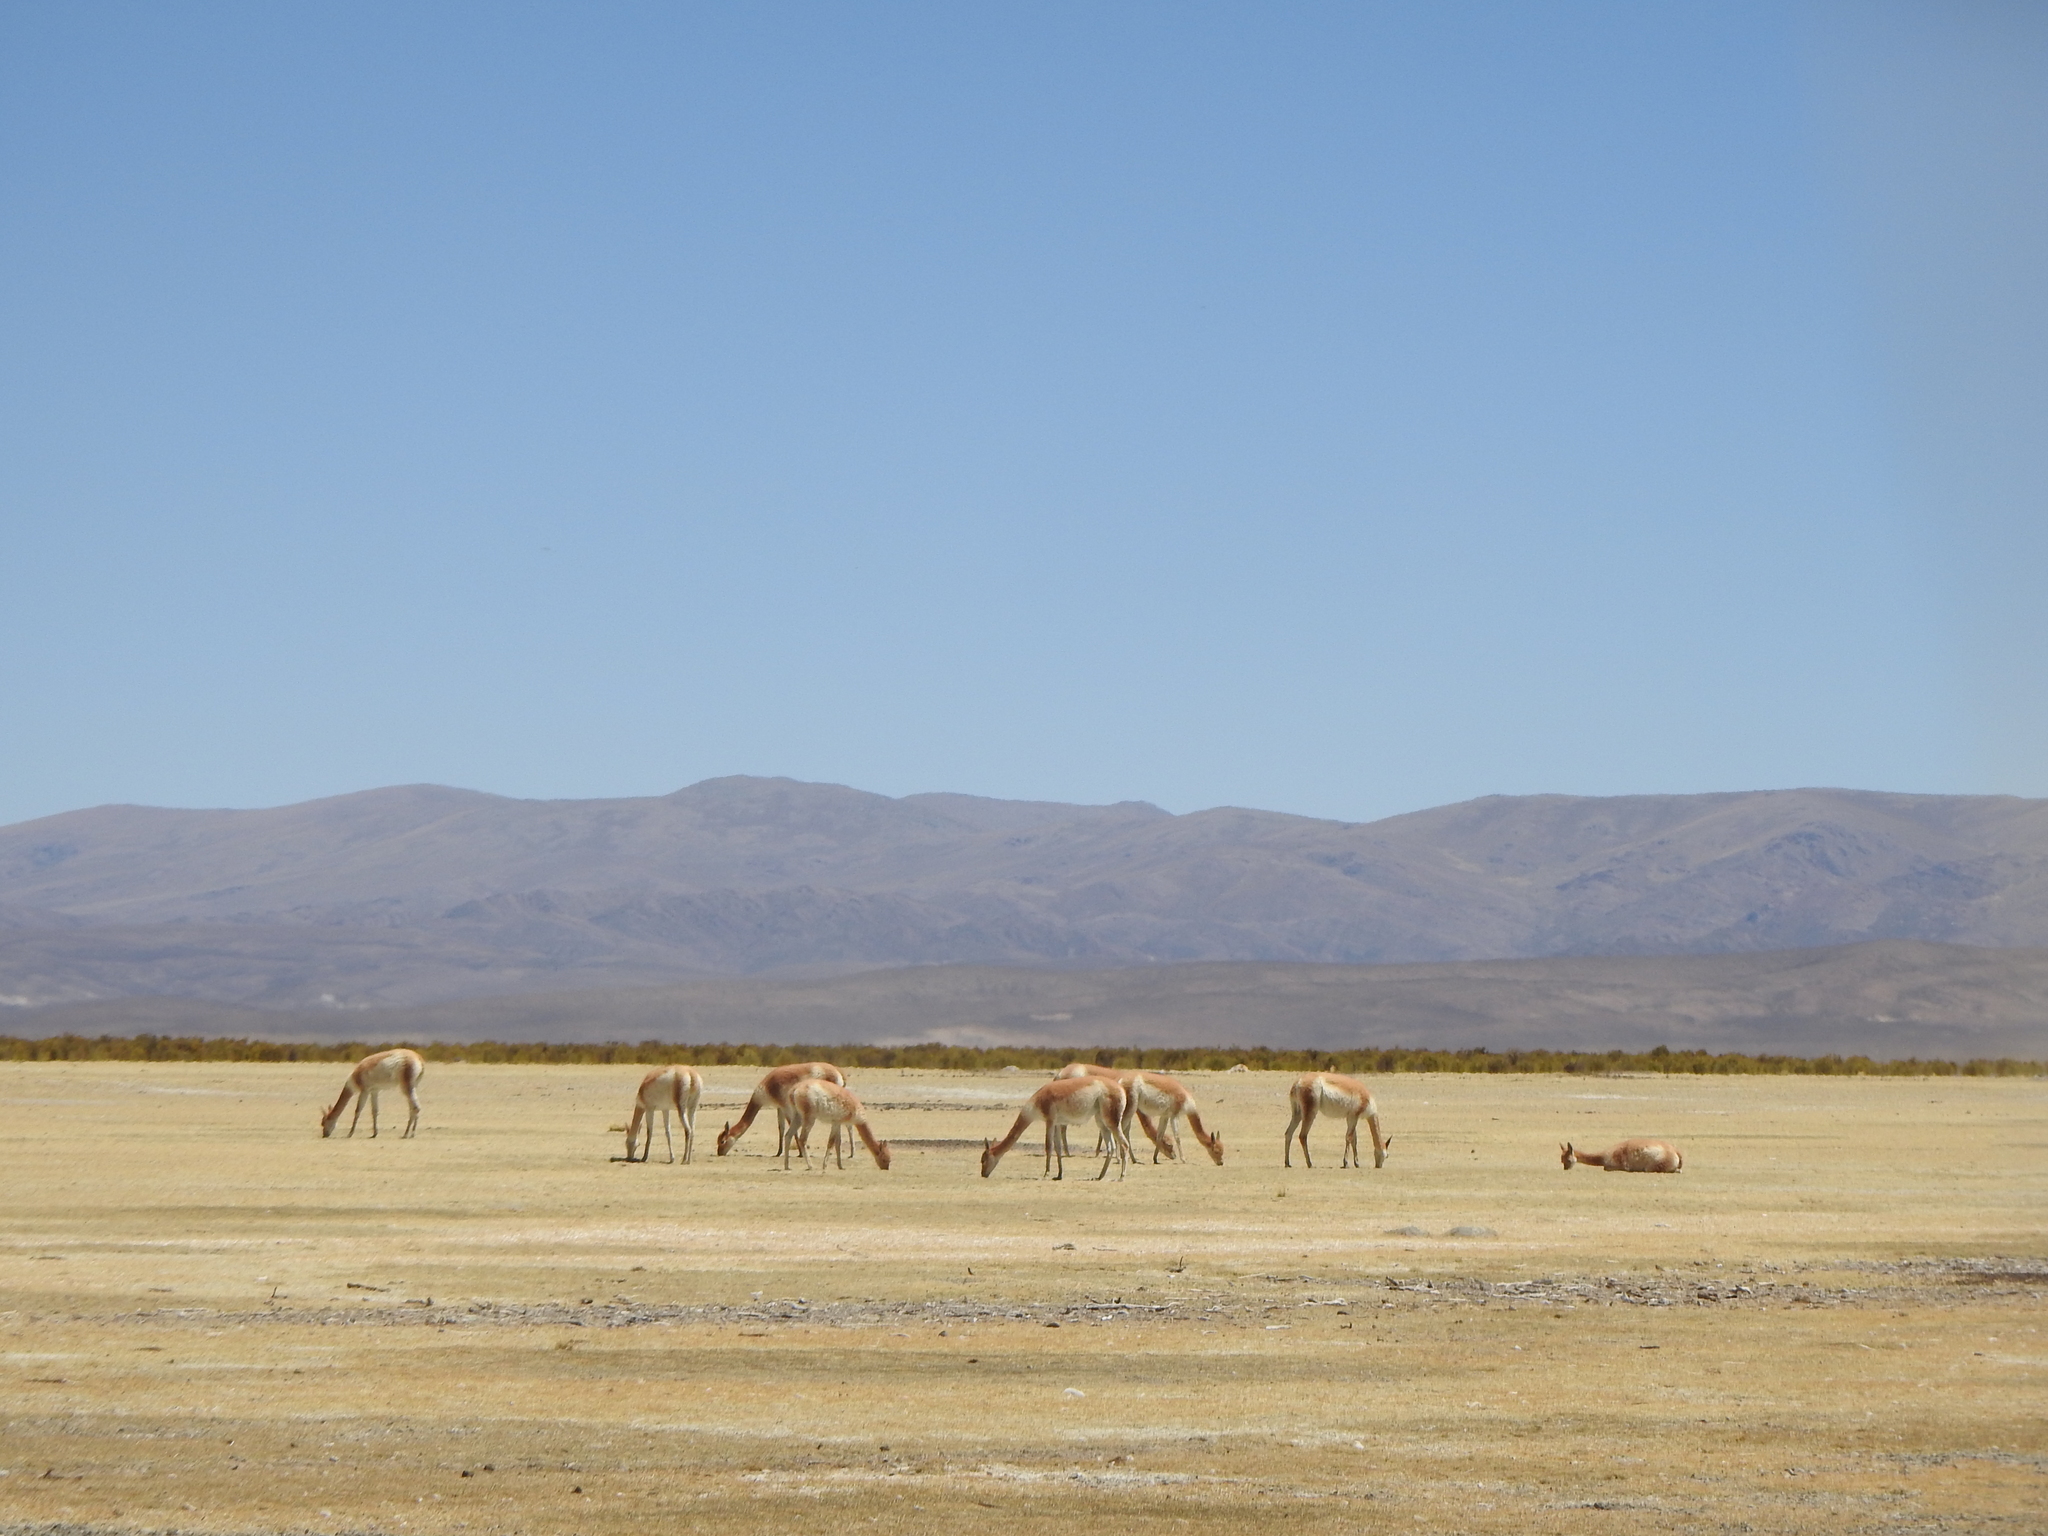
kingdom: Animalia
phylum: Chordata
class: Mammalia
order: Artiodactyla
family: Camelidae
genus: Vicugna
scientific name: Vicugna vicugna
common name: Vicugna
